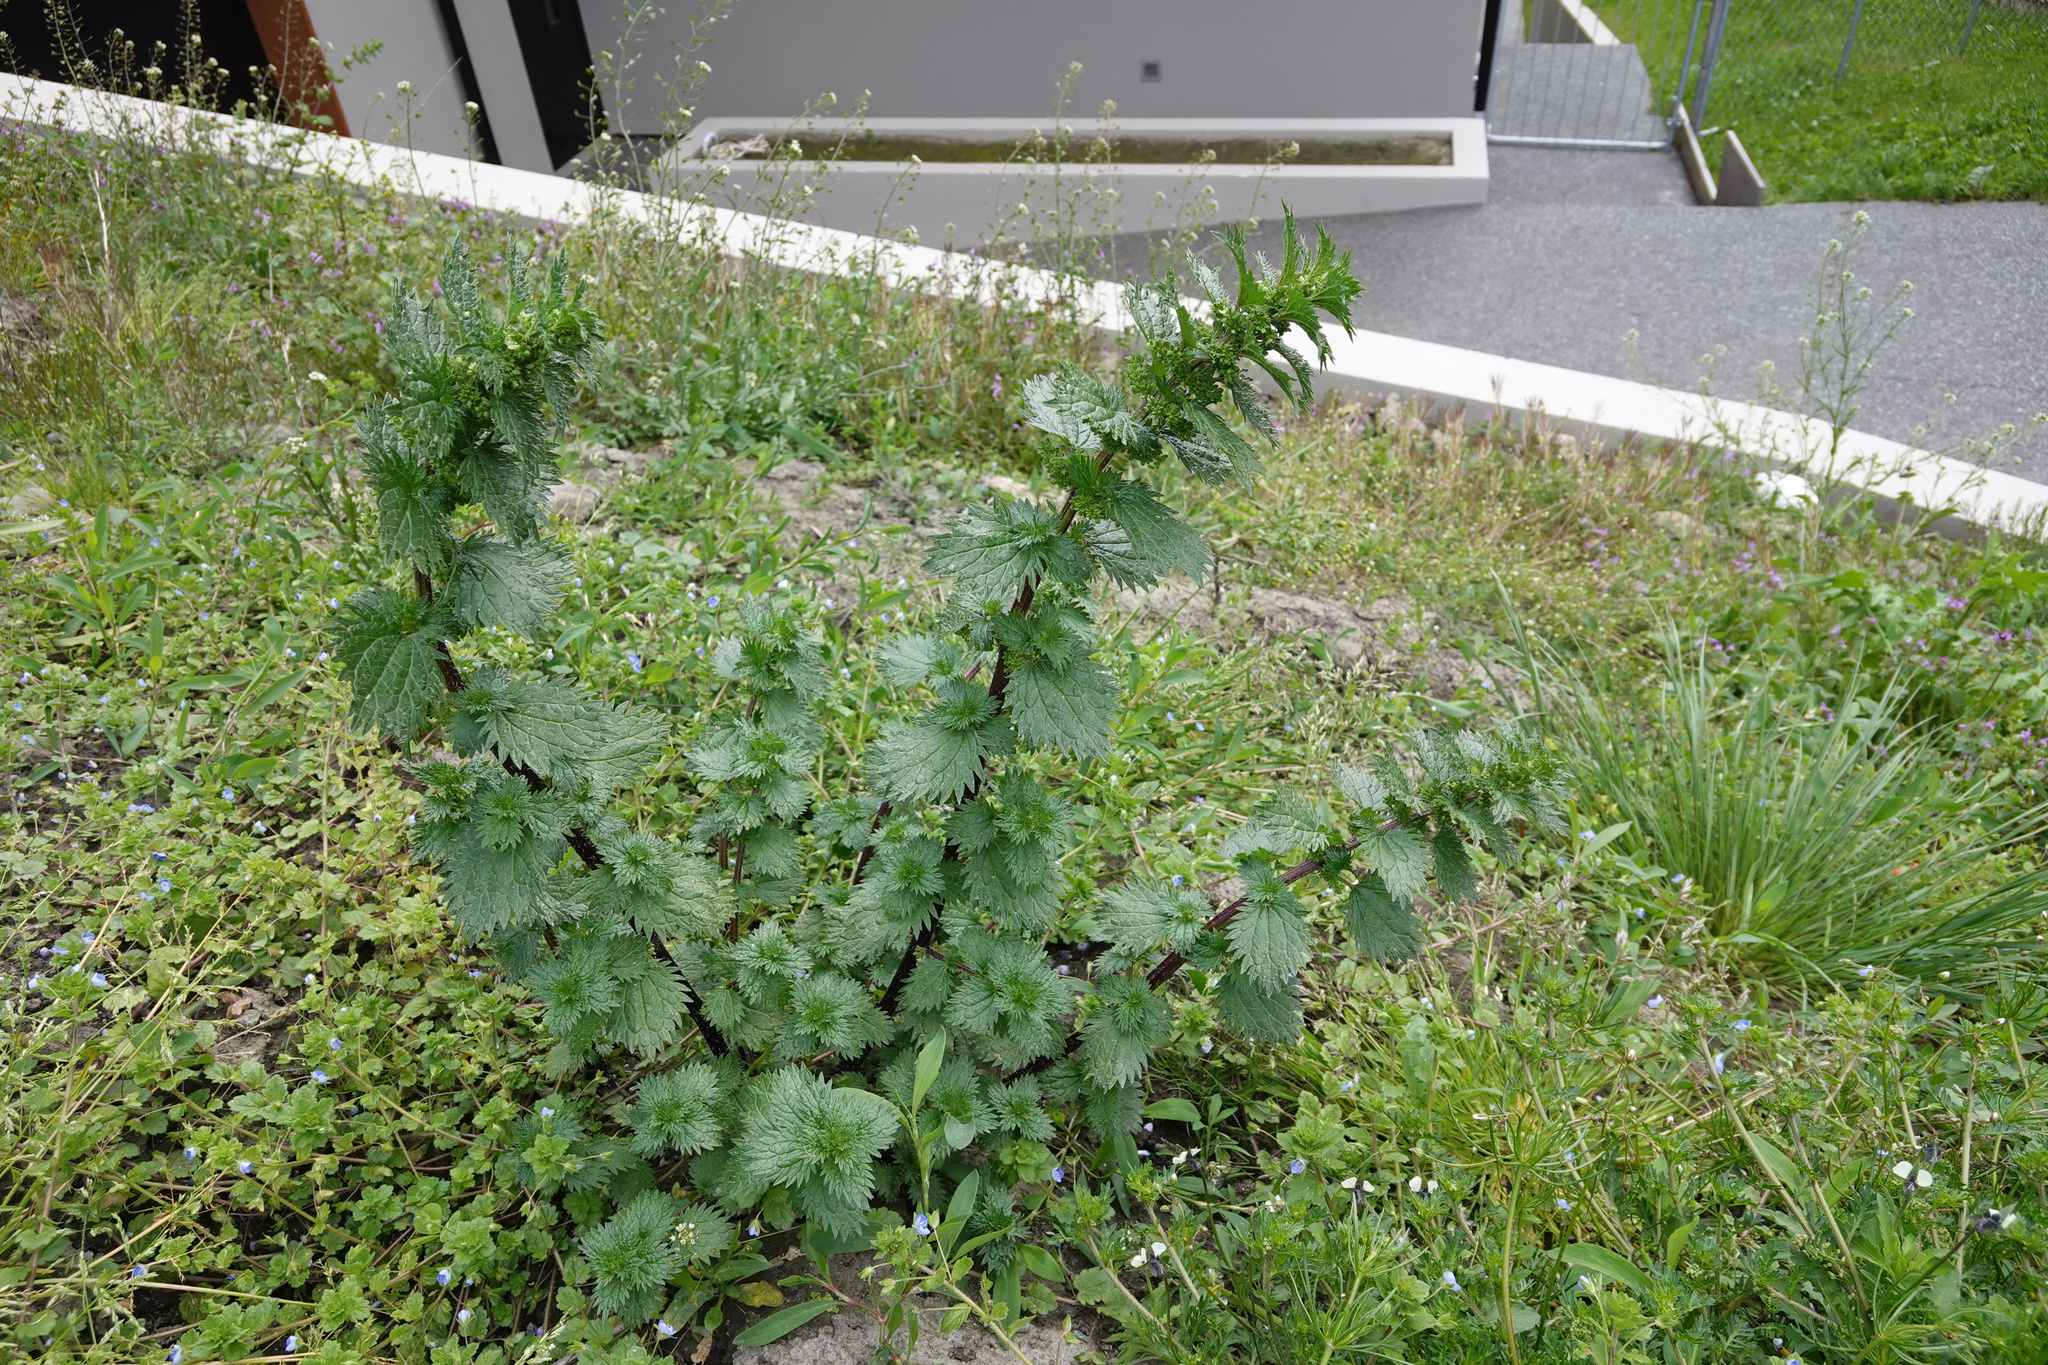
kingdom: Plantae
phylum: Tracheophyta
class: Magnoliopsida
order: Rosales
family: Urticaceae
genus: Urtica
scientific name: Urtica urens
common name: Dwarf nettle
